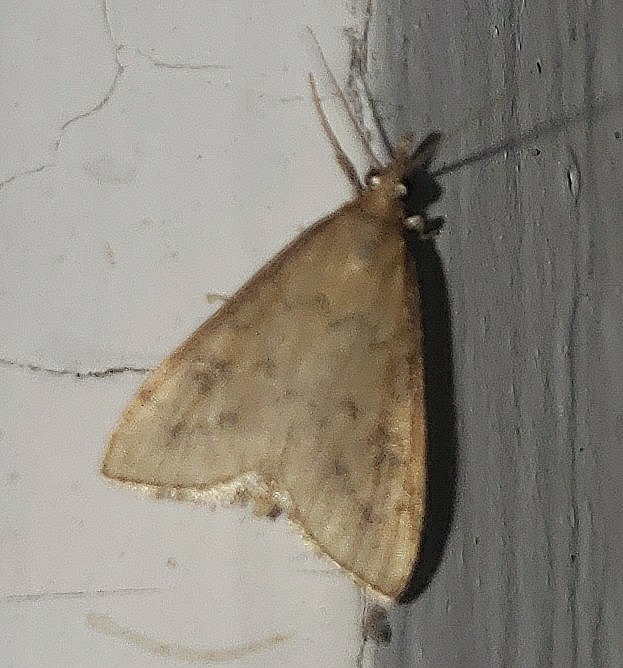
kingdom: Animalia
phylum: Arthropoda
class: Insecta
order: Lepidoptera
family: Crambidae
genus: Udea
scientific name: Udea rubigalis
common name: Celery leaftier moth
